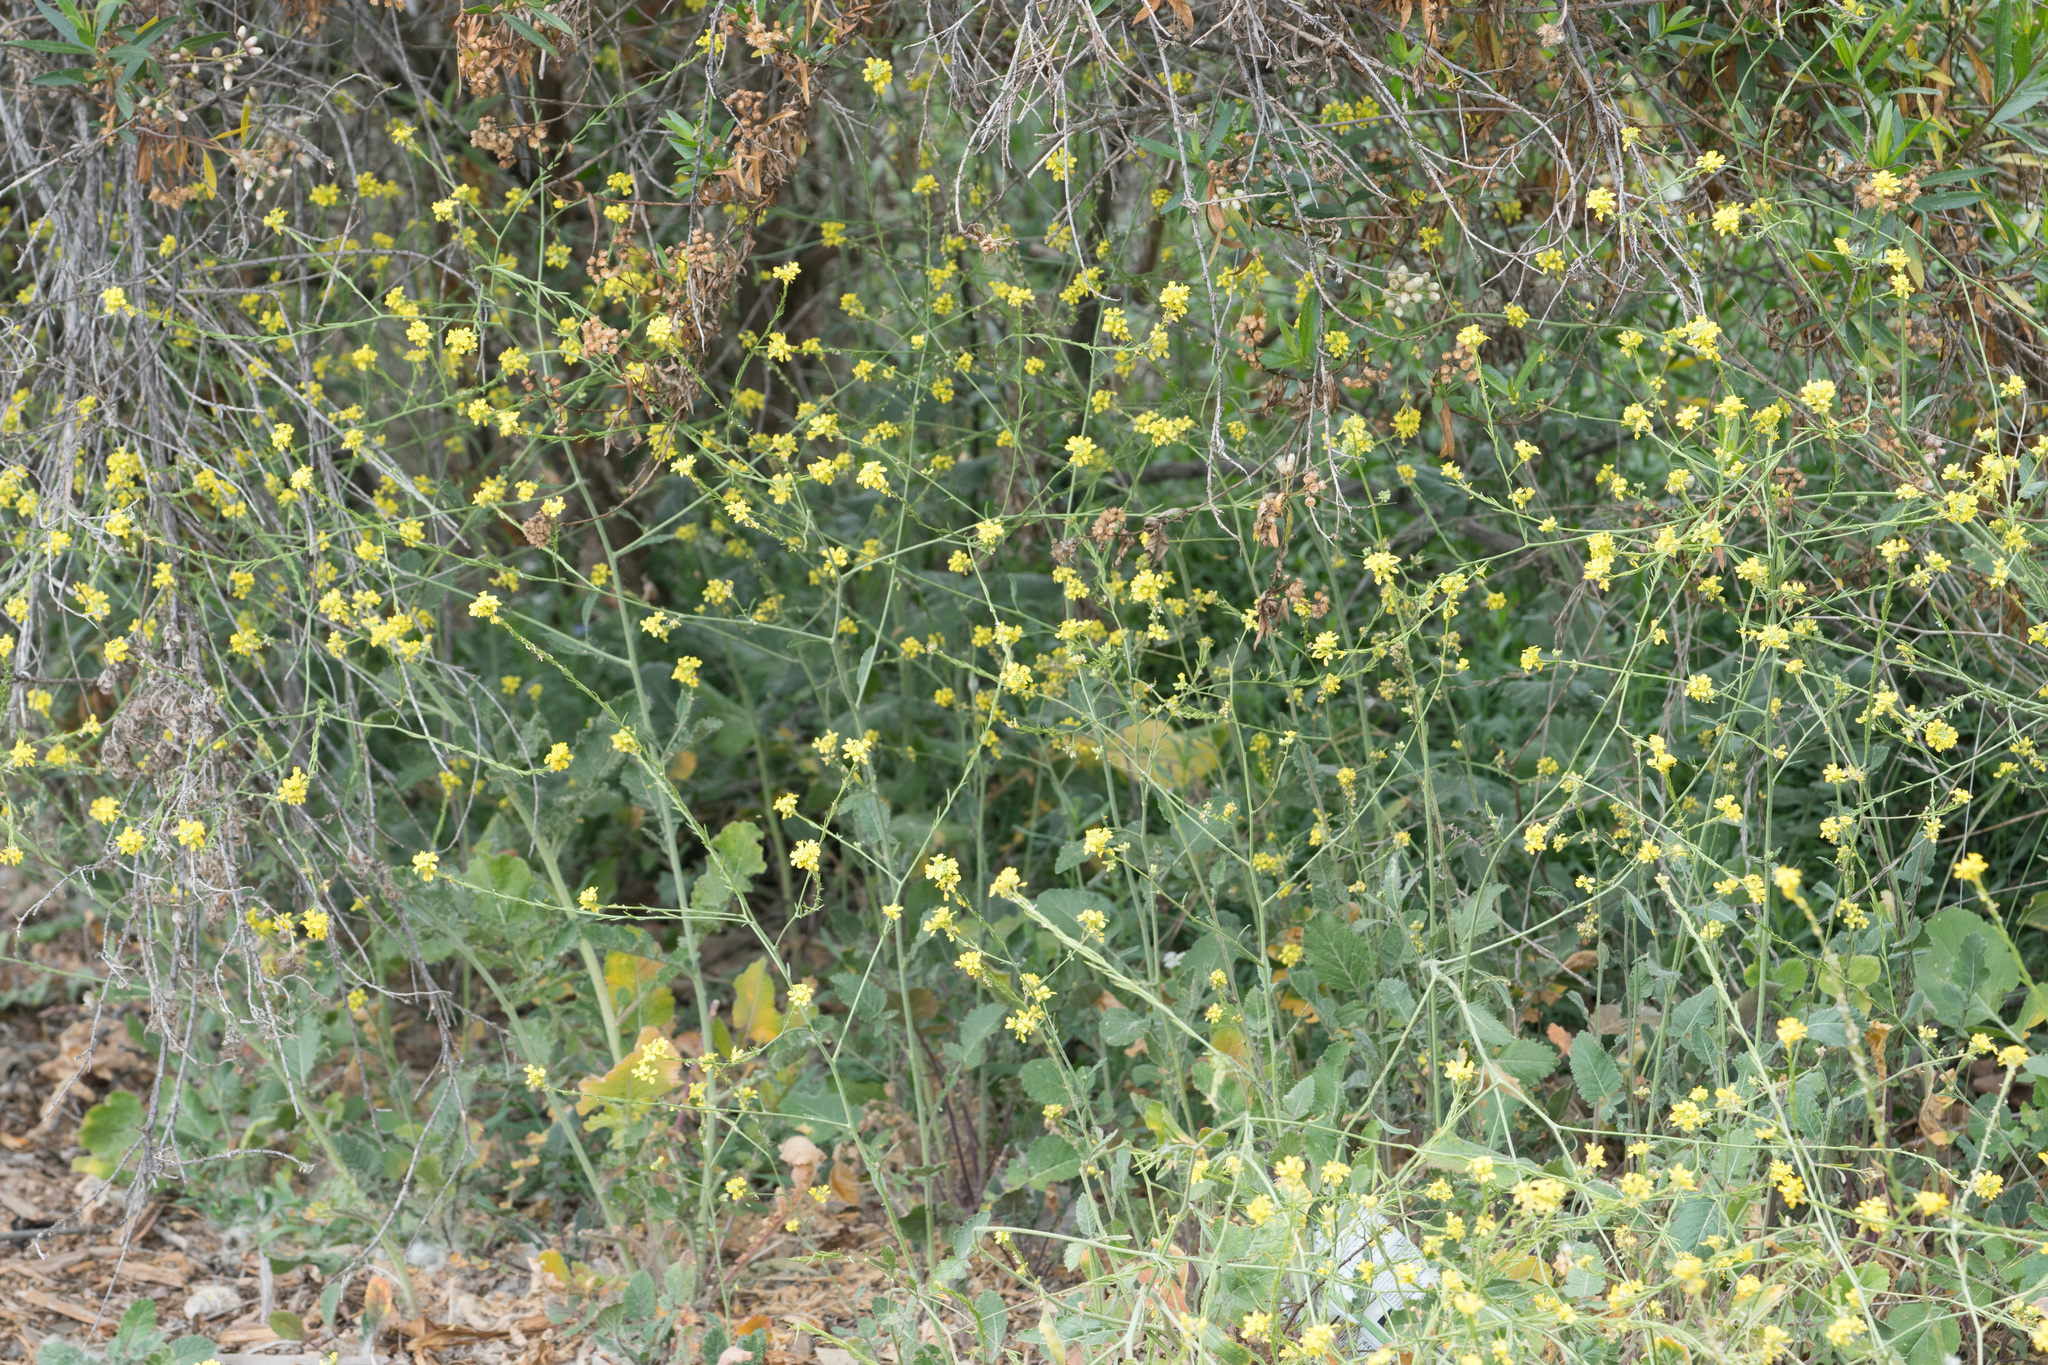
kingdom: Plantae
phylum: Tracheophyta
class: Magnoliopsida
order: Brassicales
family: Brassicaceae
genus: Hirschfeldia
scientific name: Hirschfeldia incana
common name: Hoary mustard
